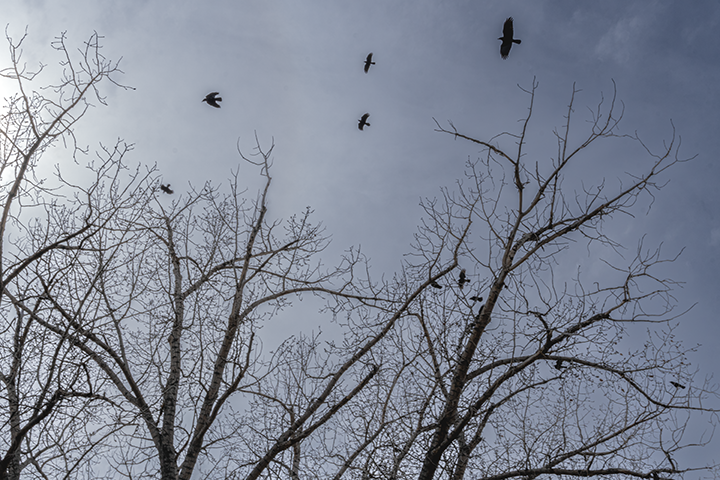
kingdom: Animalia
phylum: Chordata
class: Aves
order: Passeriformes
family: Corvidae
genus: Corvus
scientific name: Corvus brachyrhynchos
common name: American crow
